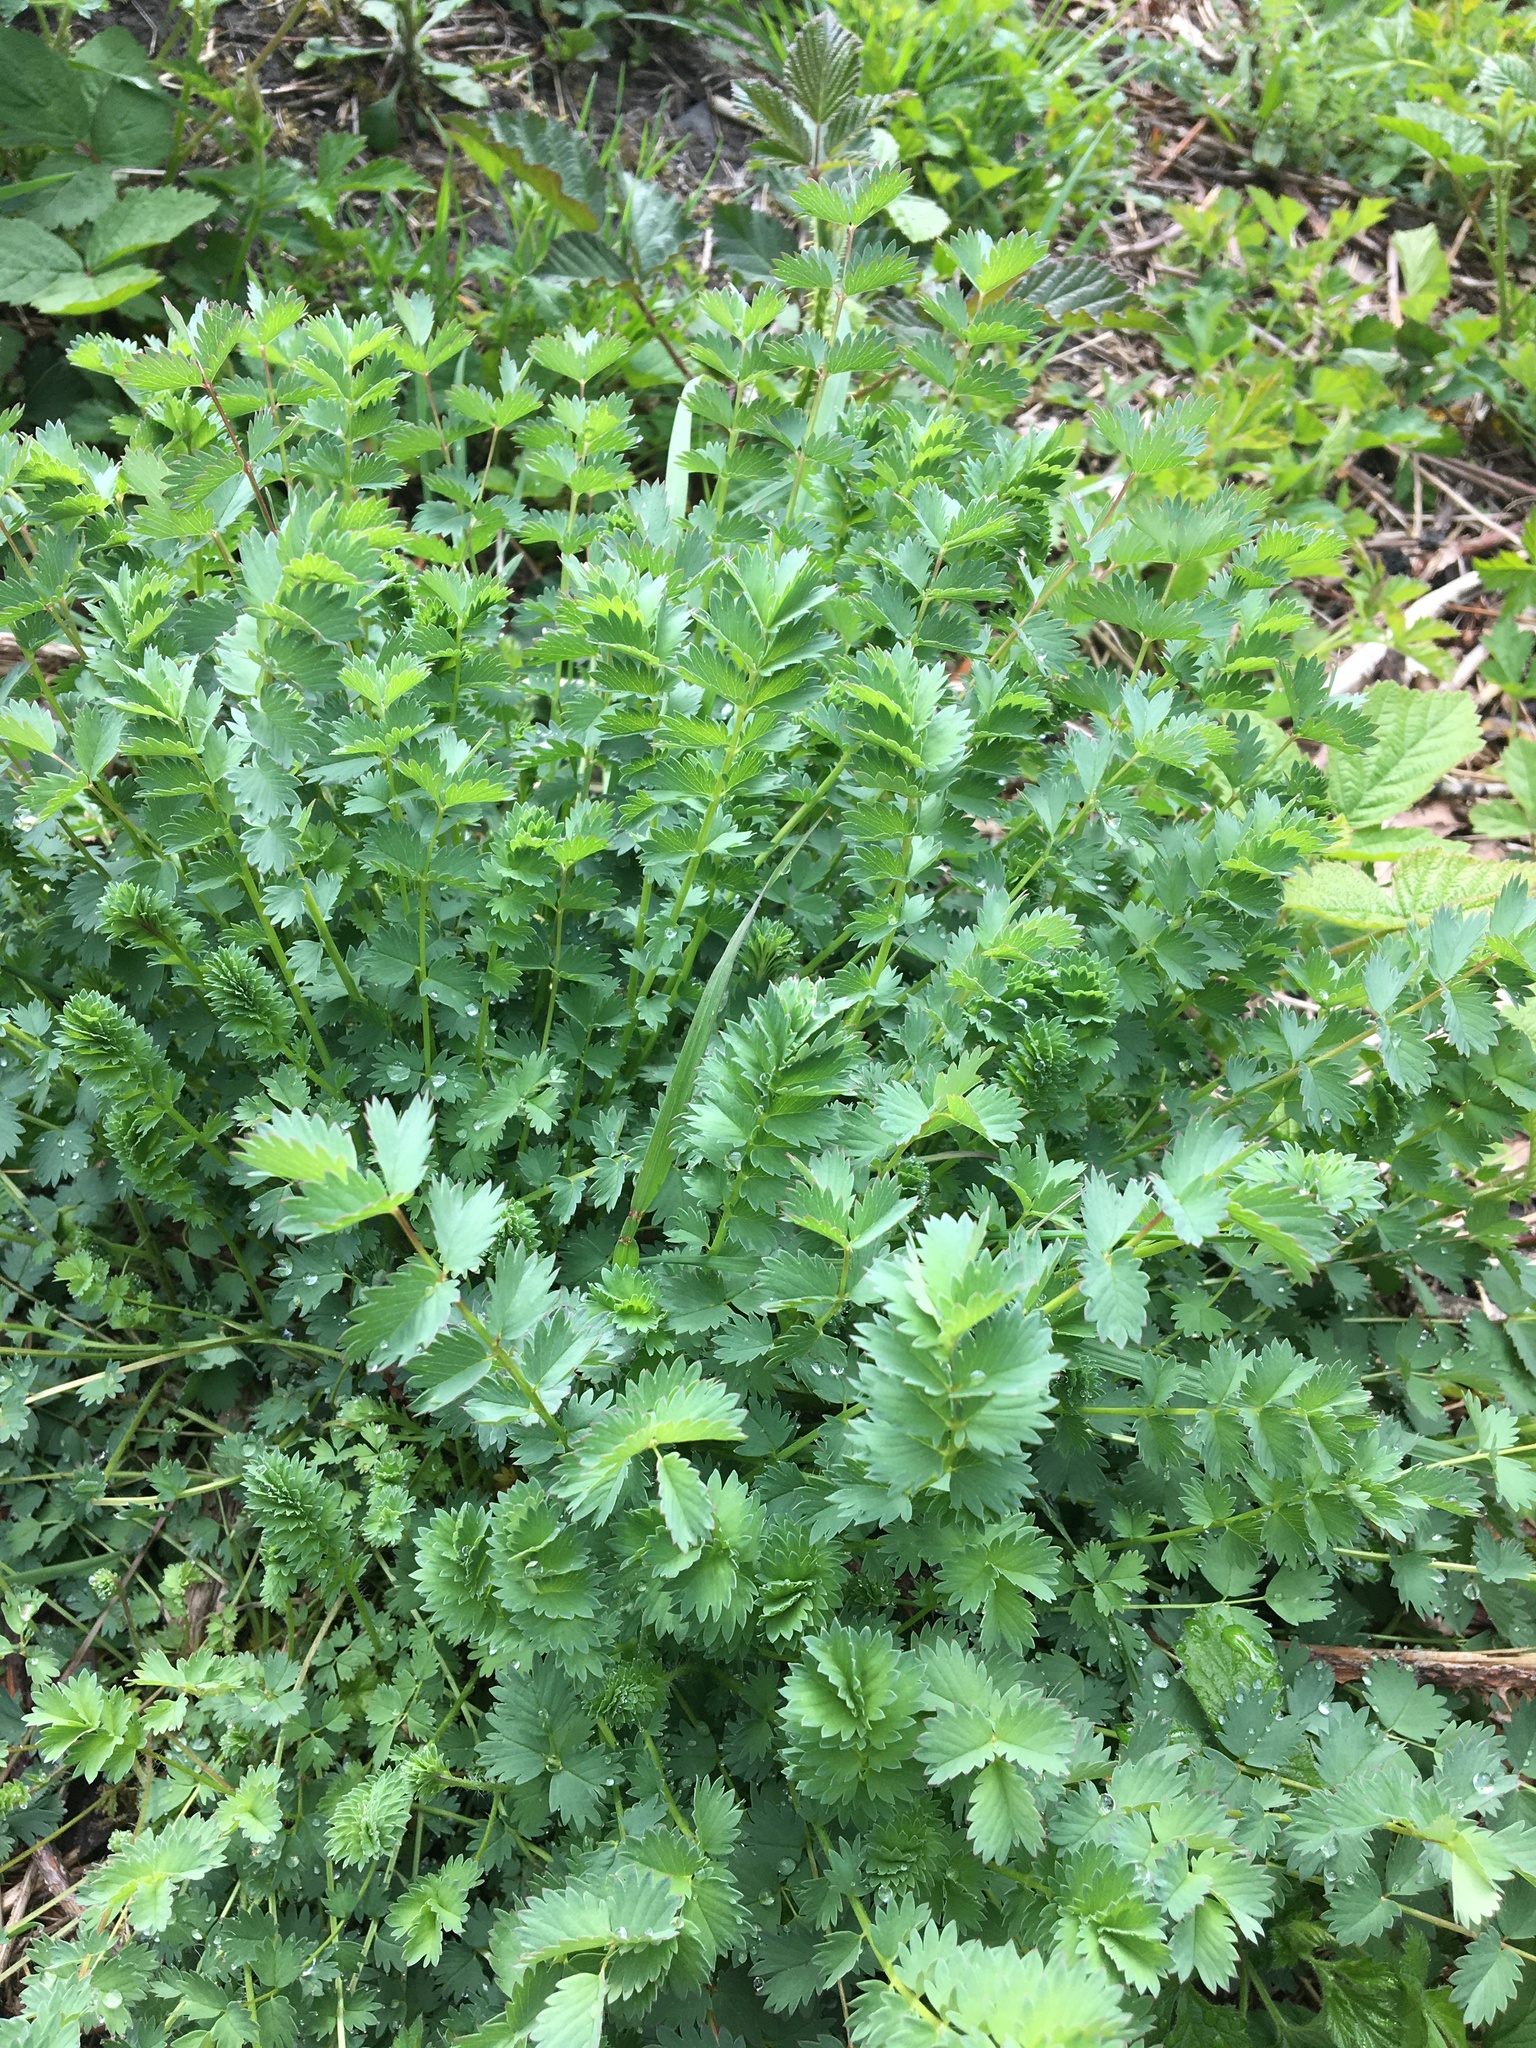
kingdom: Plantae
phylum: Tracheophyta
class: Magnoliopsida
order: Rosales
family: Rosaceae
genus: Poterium
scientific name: Poterium sanguisorba
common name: Salad burnet
